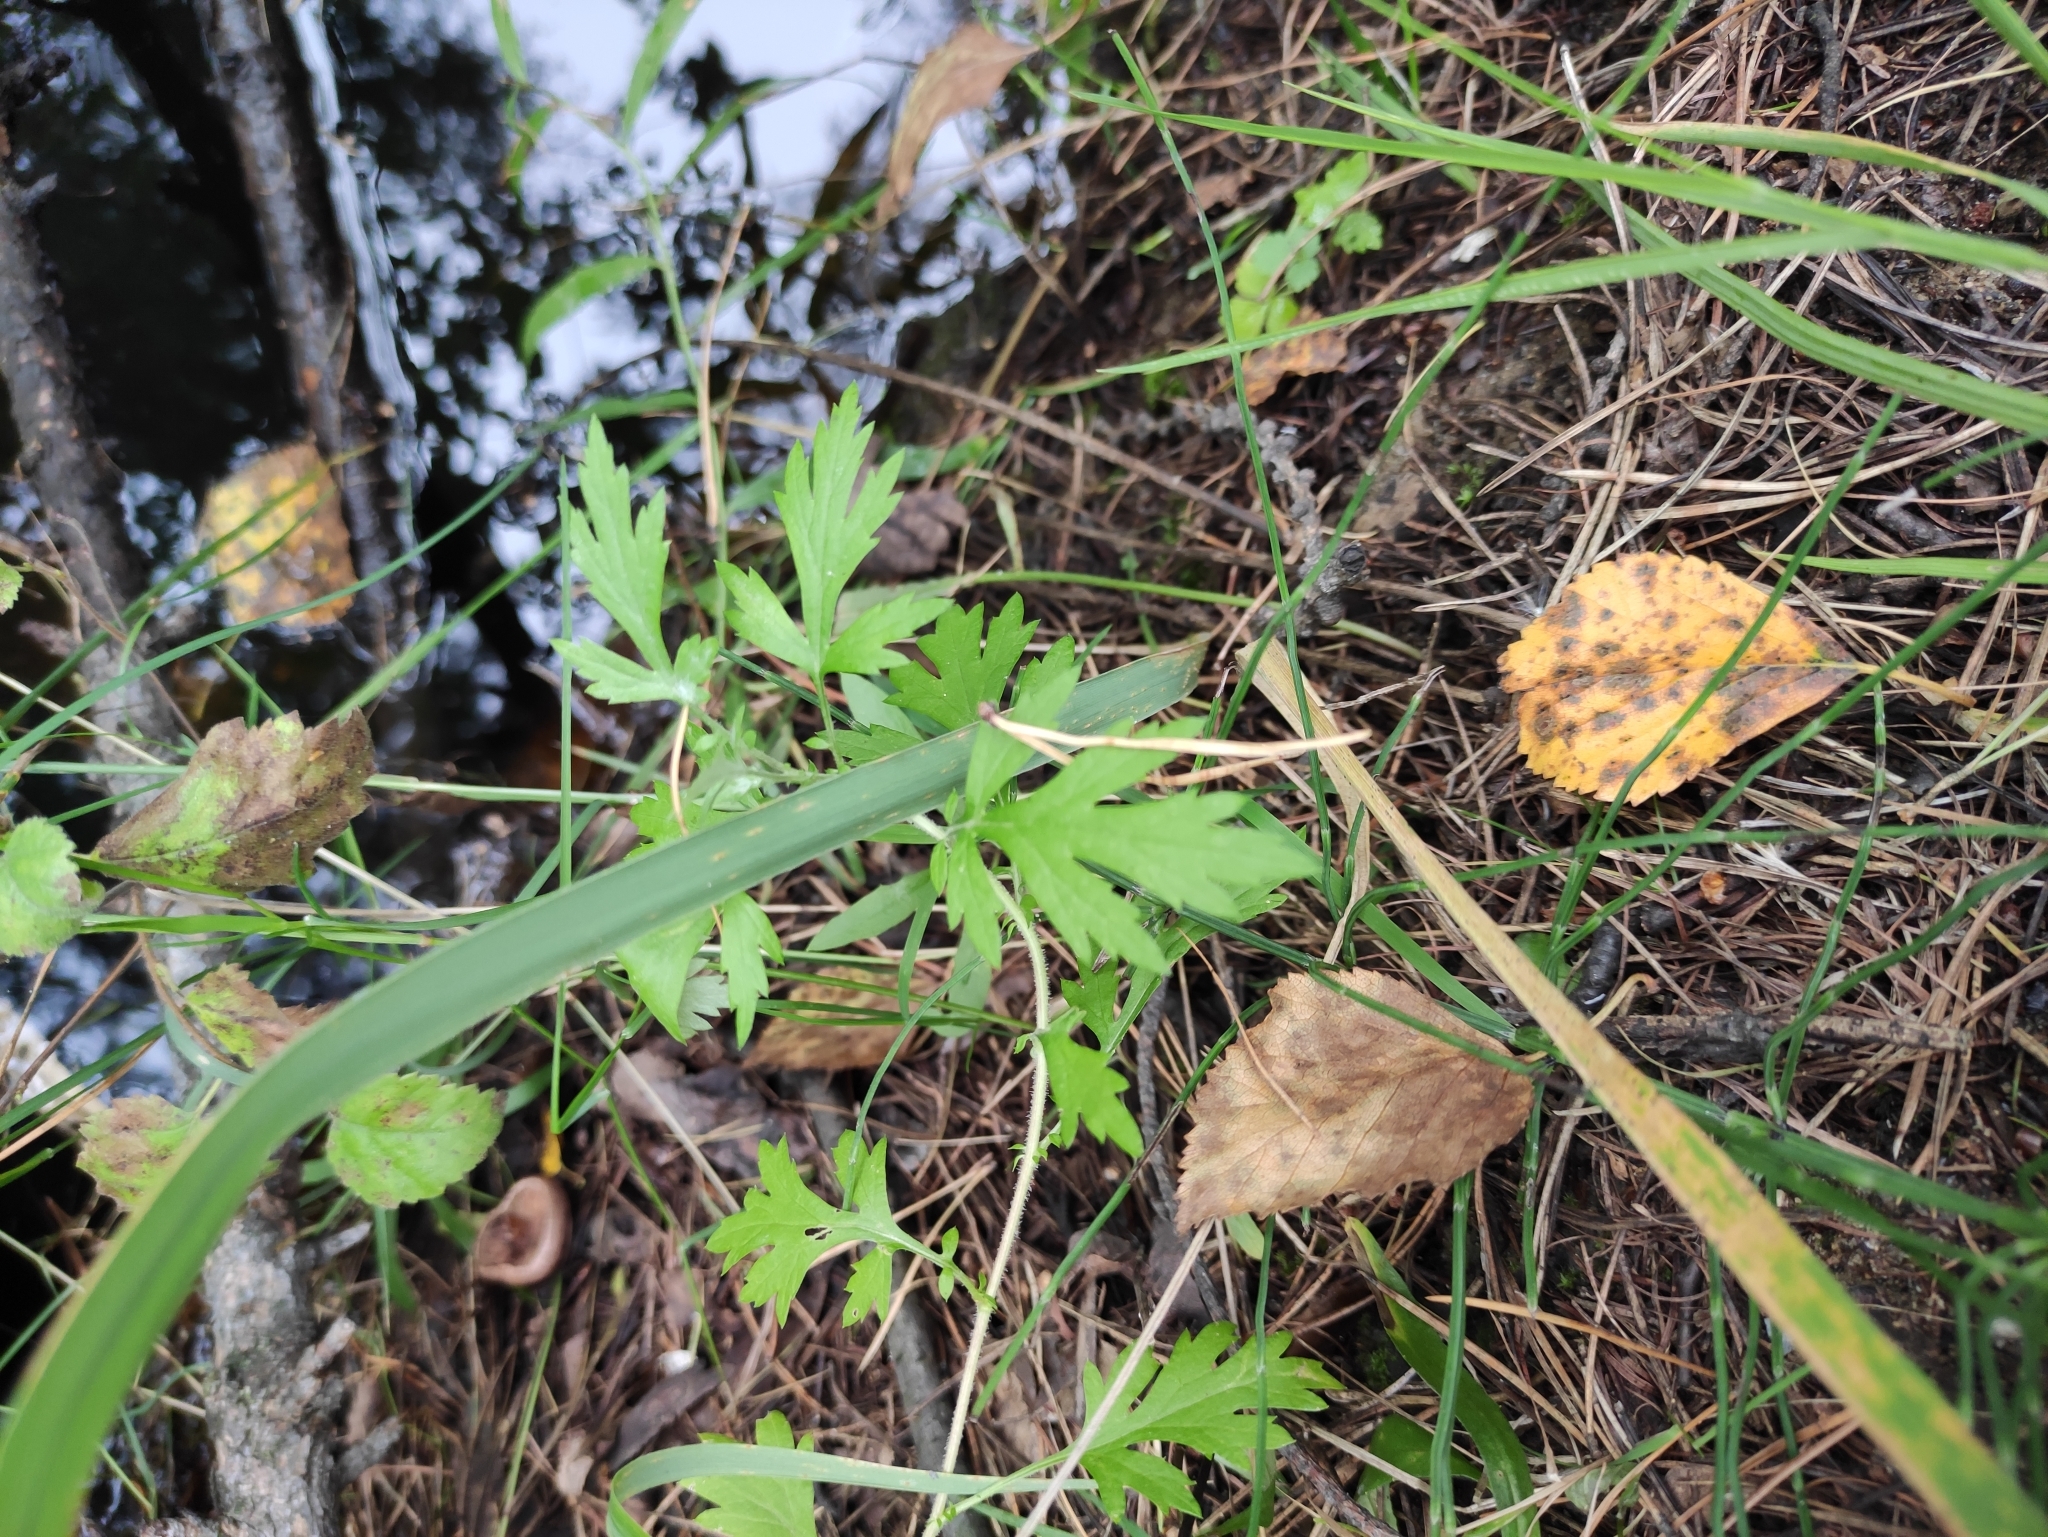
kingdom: Plantae
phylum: Tracheophyta
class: Magnoliopsida
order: Ranunculales
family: Ranunculaceae
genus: Ranunculus
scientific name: Ranunculus repens
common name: Creeping buttercup
